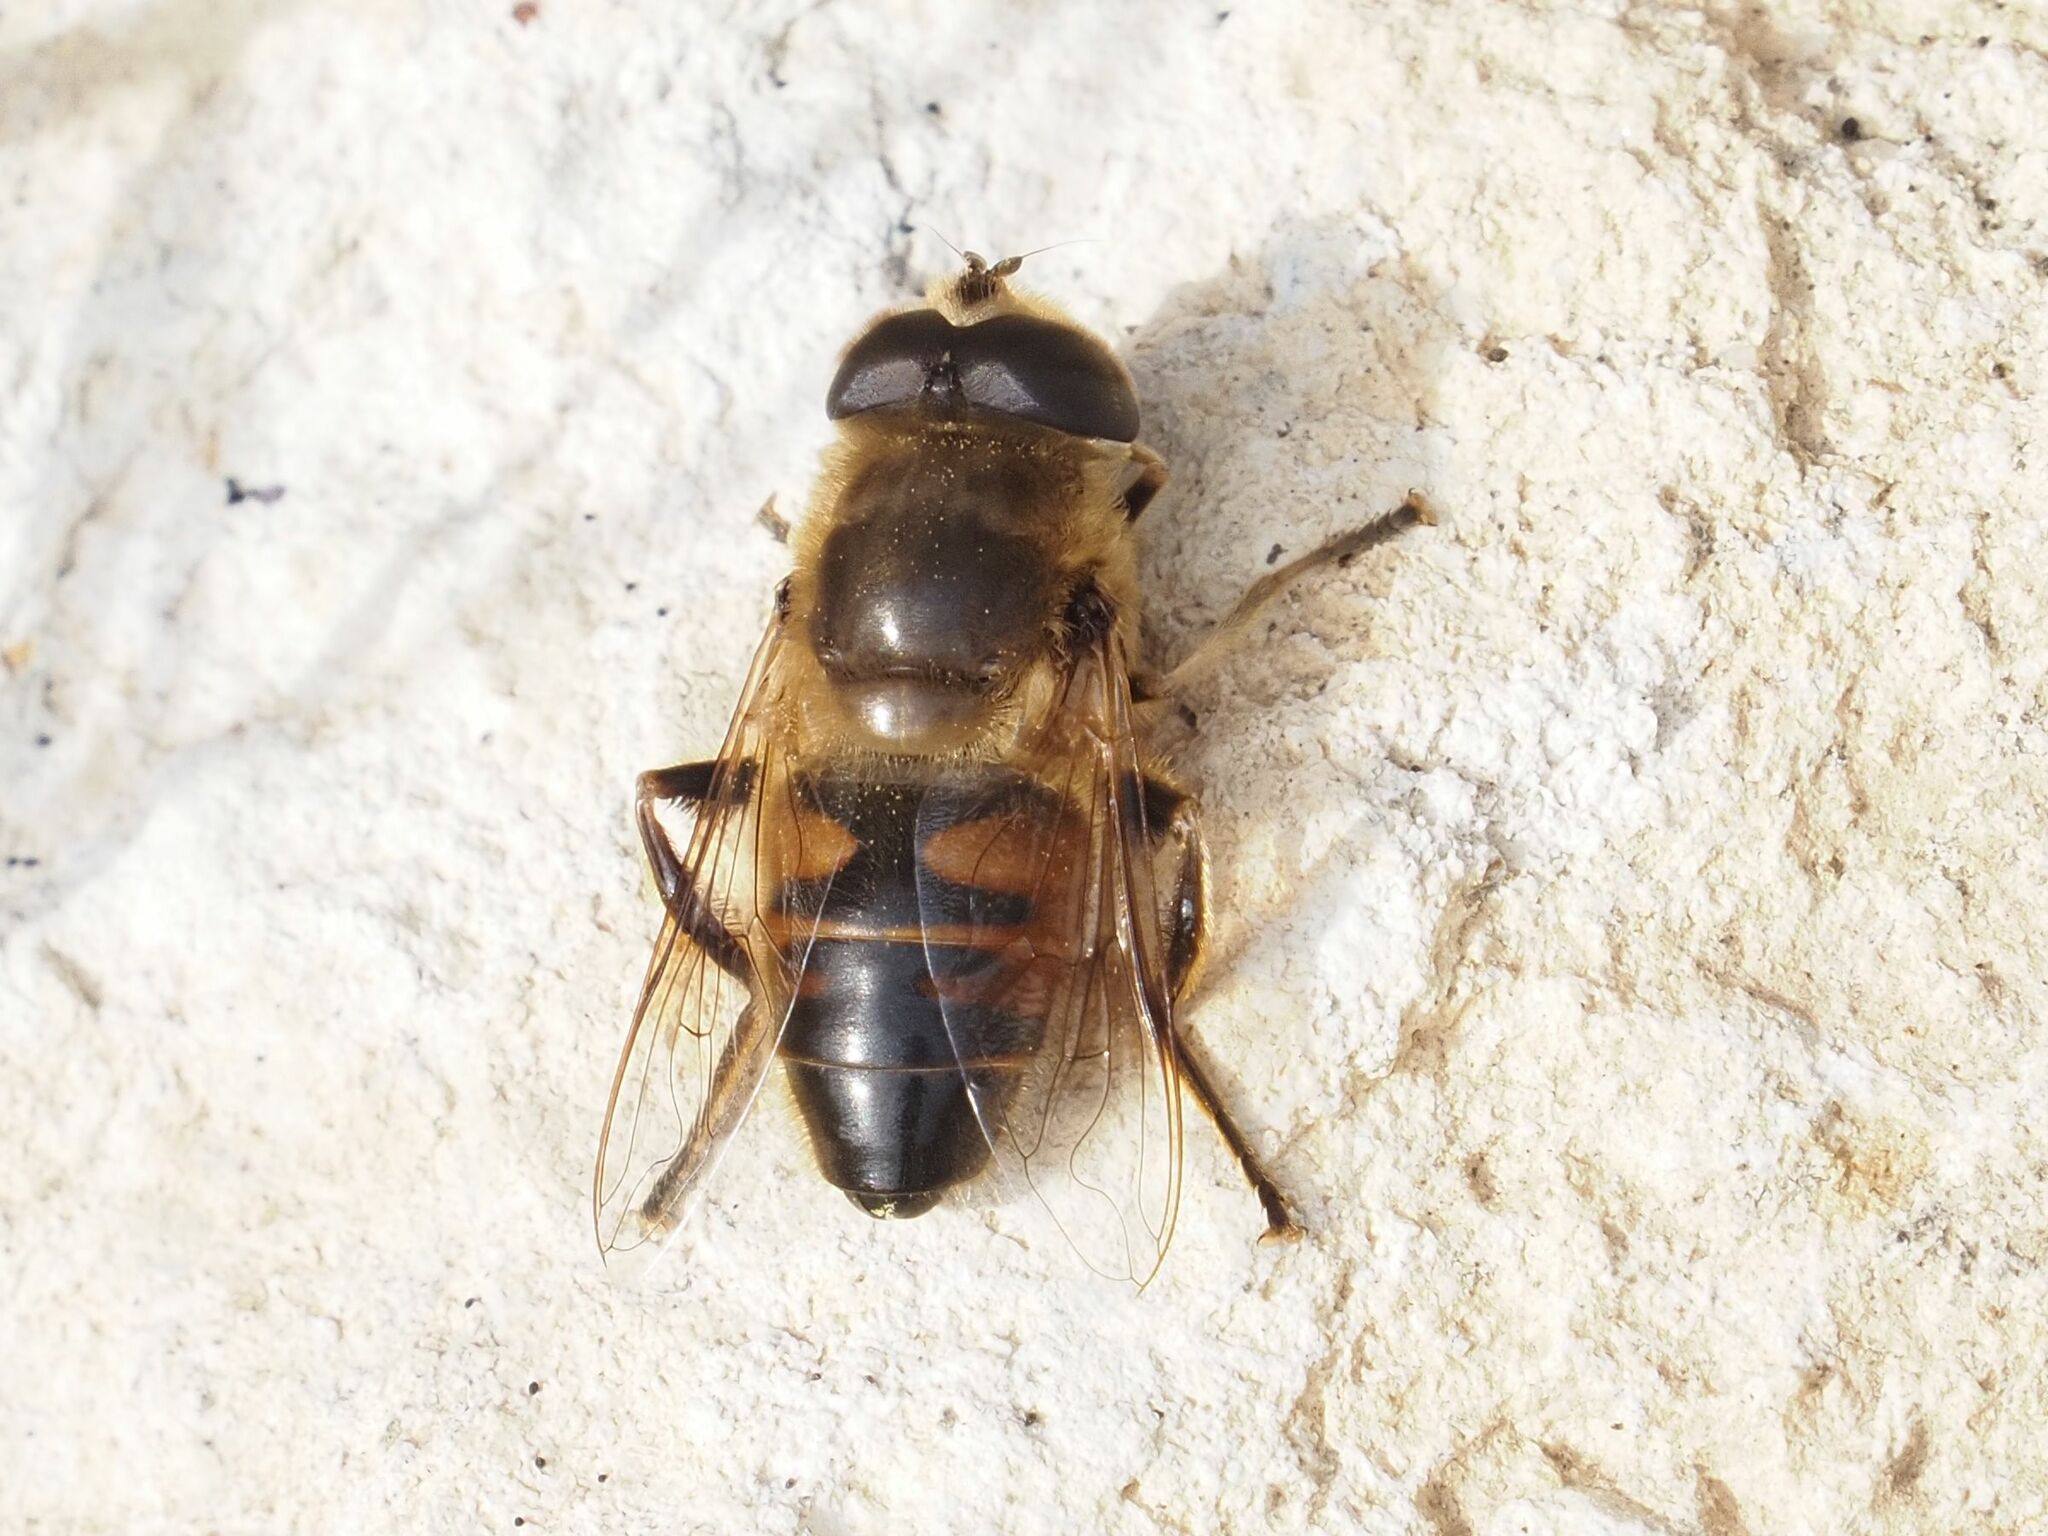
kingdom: Animalia
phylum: Arthropoda
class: Insecta
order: Diptera
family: Syrphidae
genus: Eristalis
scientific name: Eristalis tenax
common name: Drone fly
